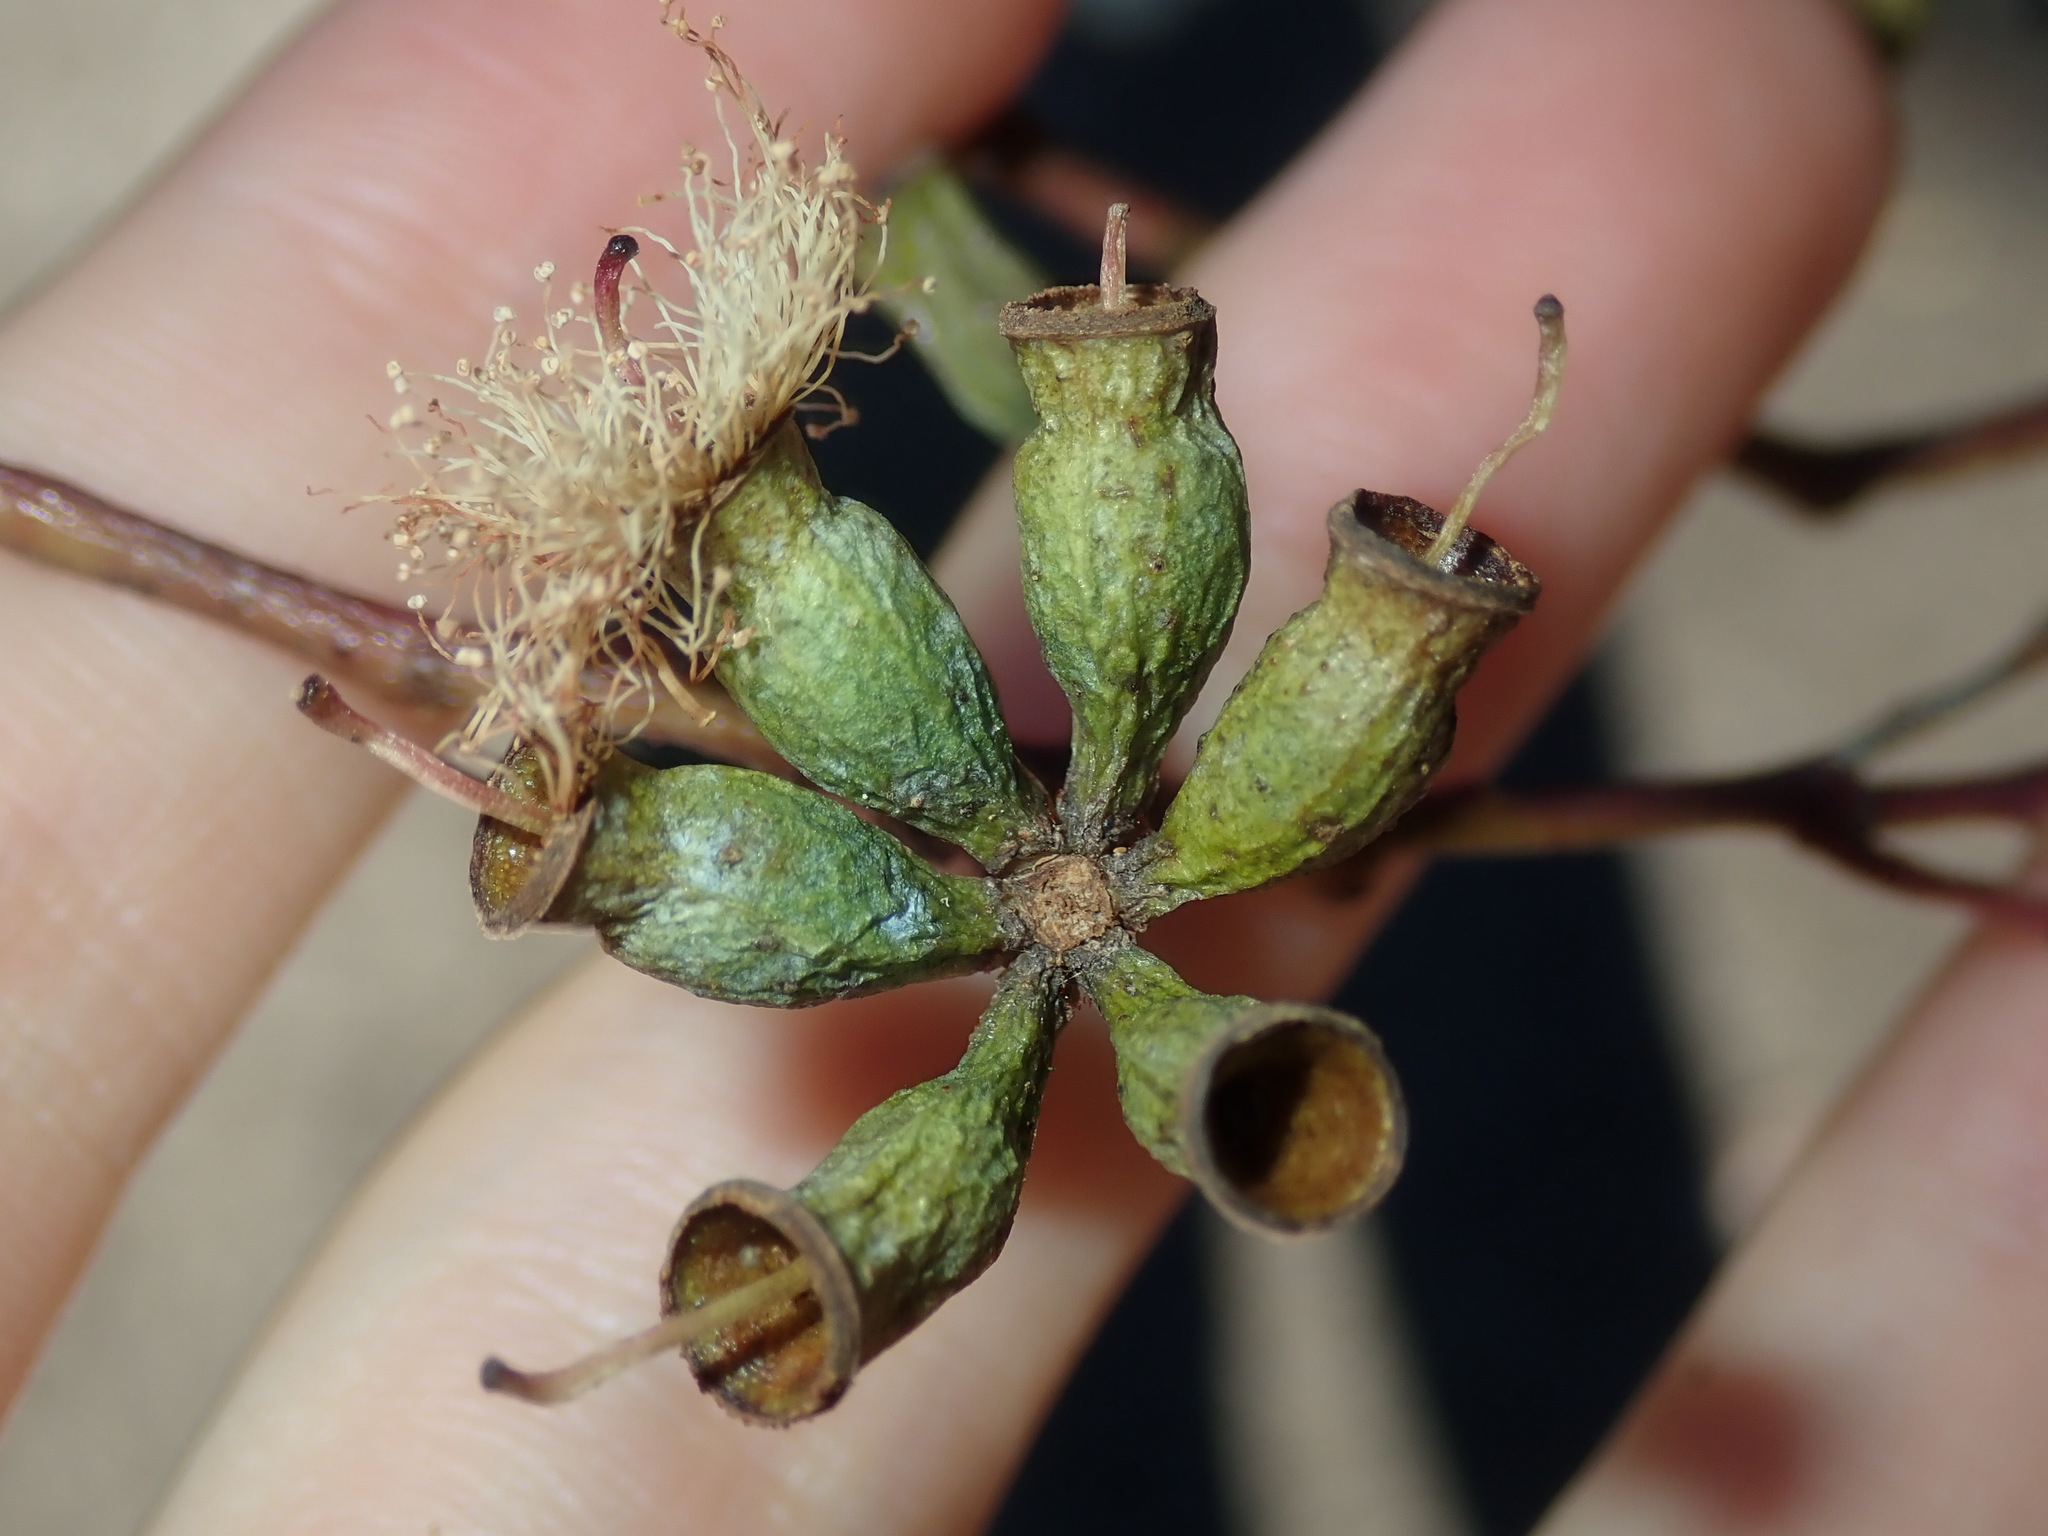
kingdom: Plantae
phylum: Tracheophyta
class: Magnoliopsida
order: Myrtales
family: Myrtaceae
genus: Eucalyptus
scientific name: Eucalyptus albens
